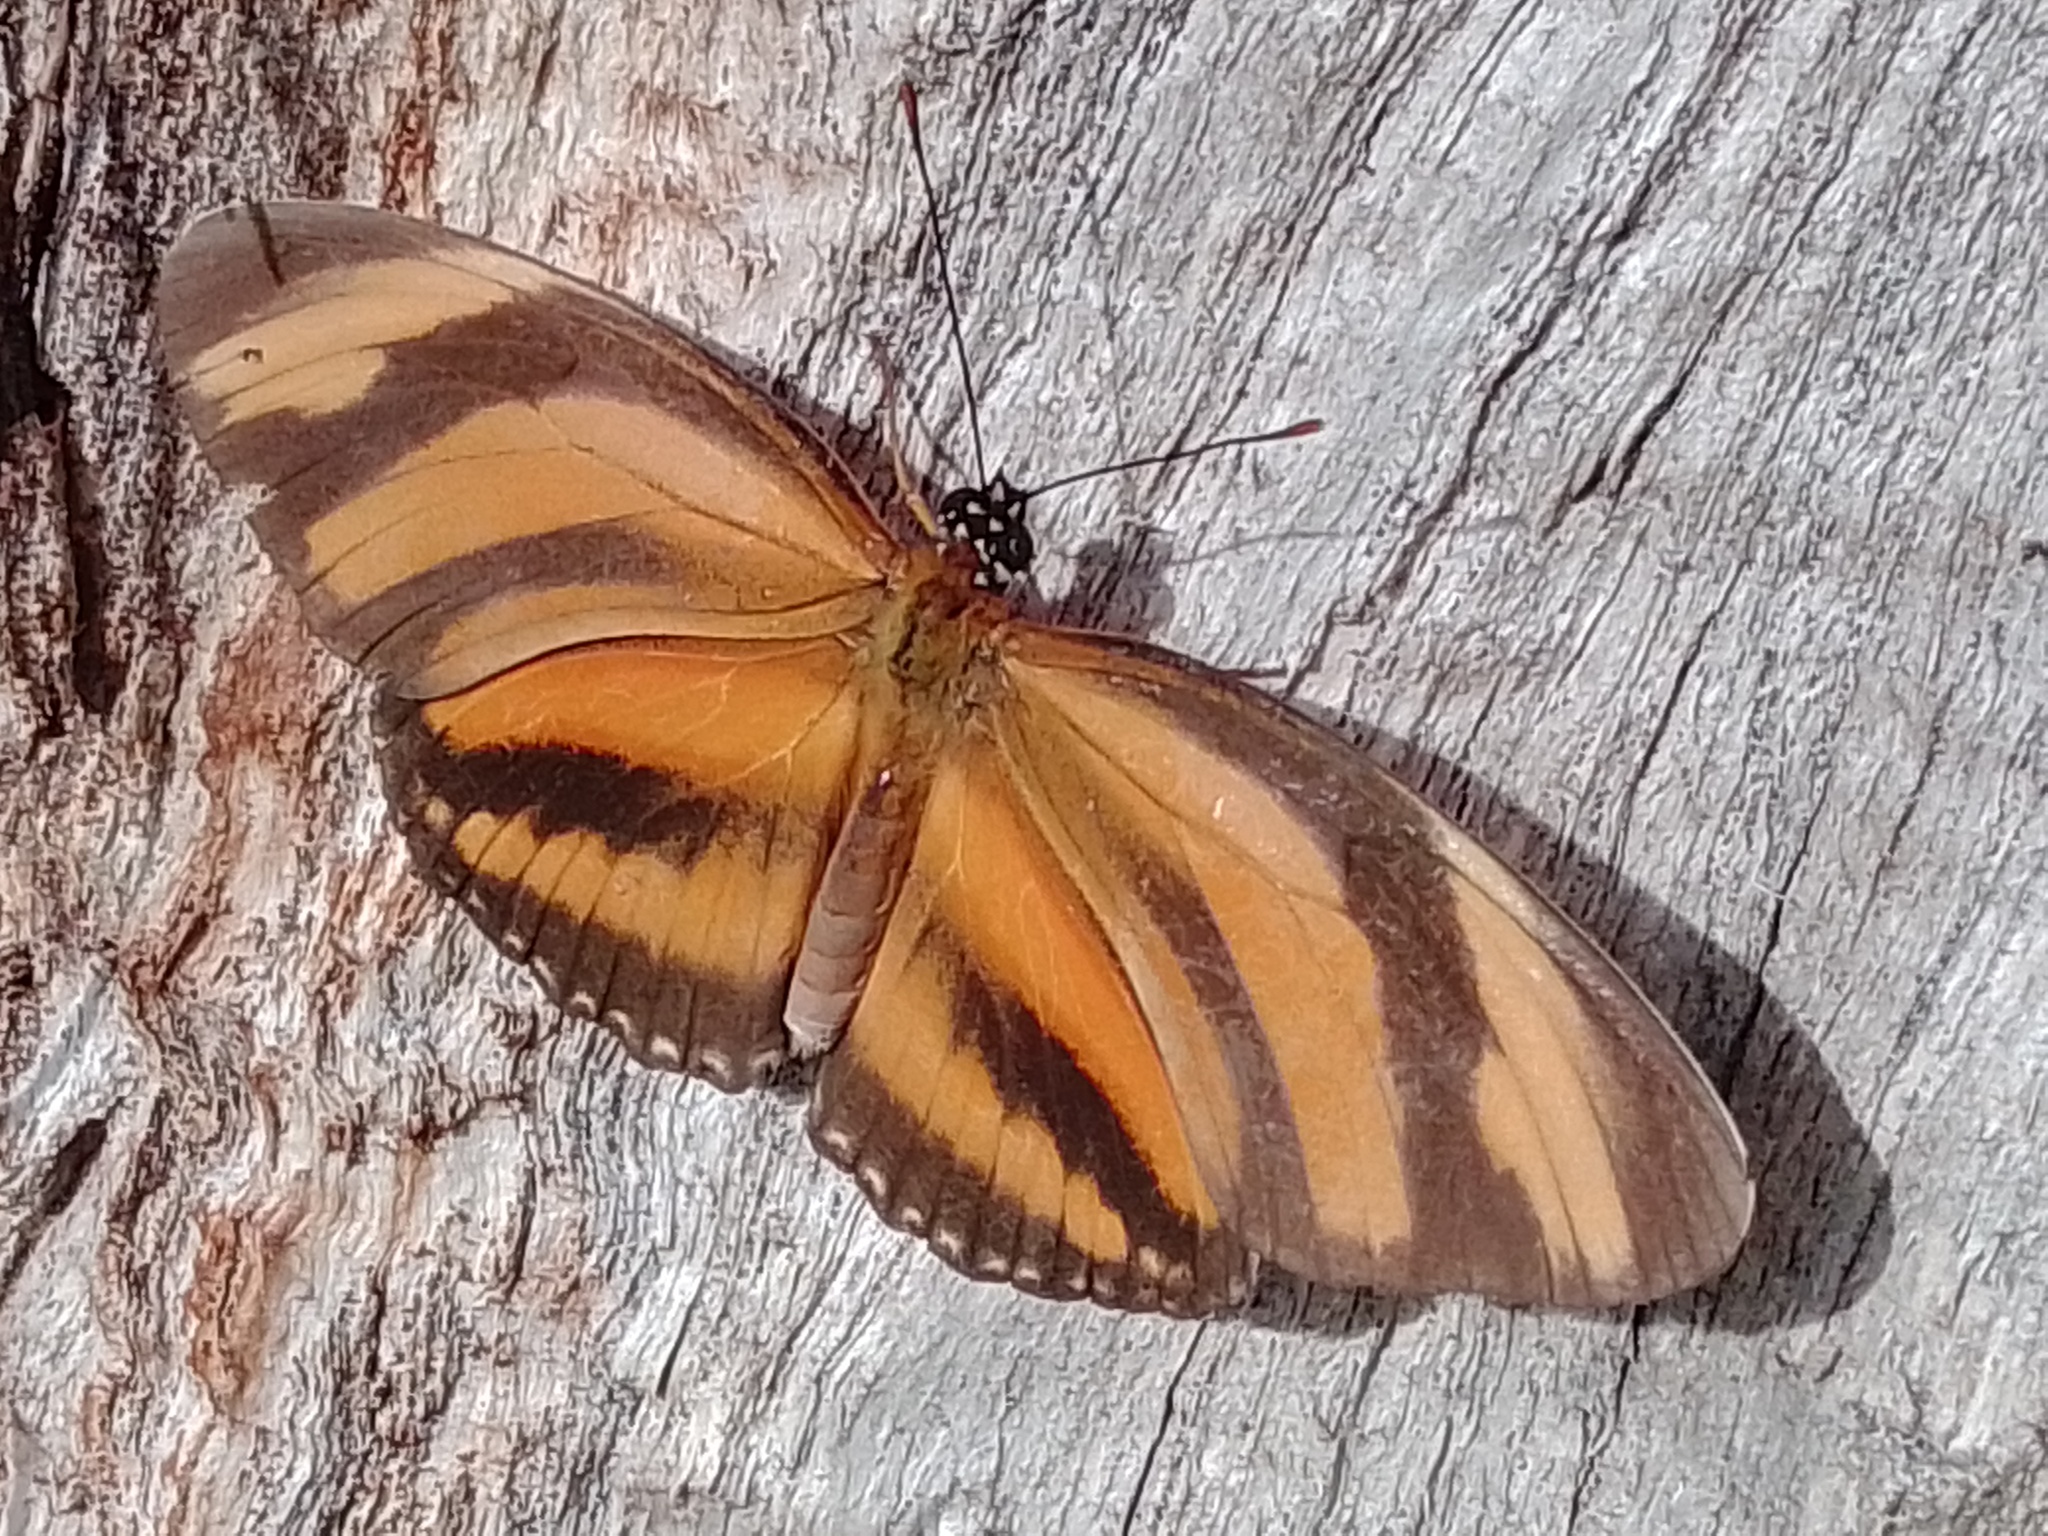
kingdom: Animalia
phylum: Arthropoda
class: Insecta
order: Lepidoptera
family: Nymphalidae
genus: Dryadula
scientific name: Dryadula phaetusa
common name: Banded orange heliconian
